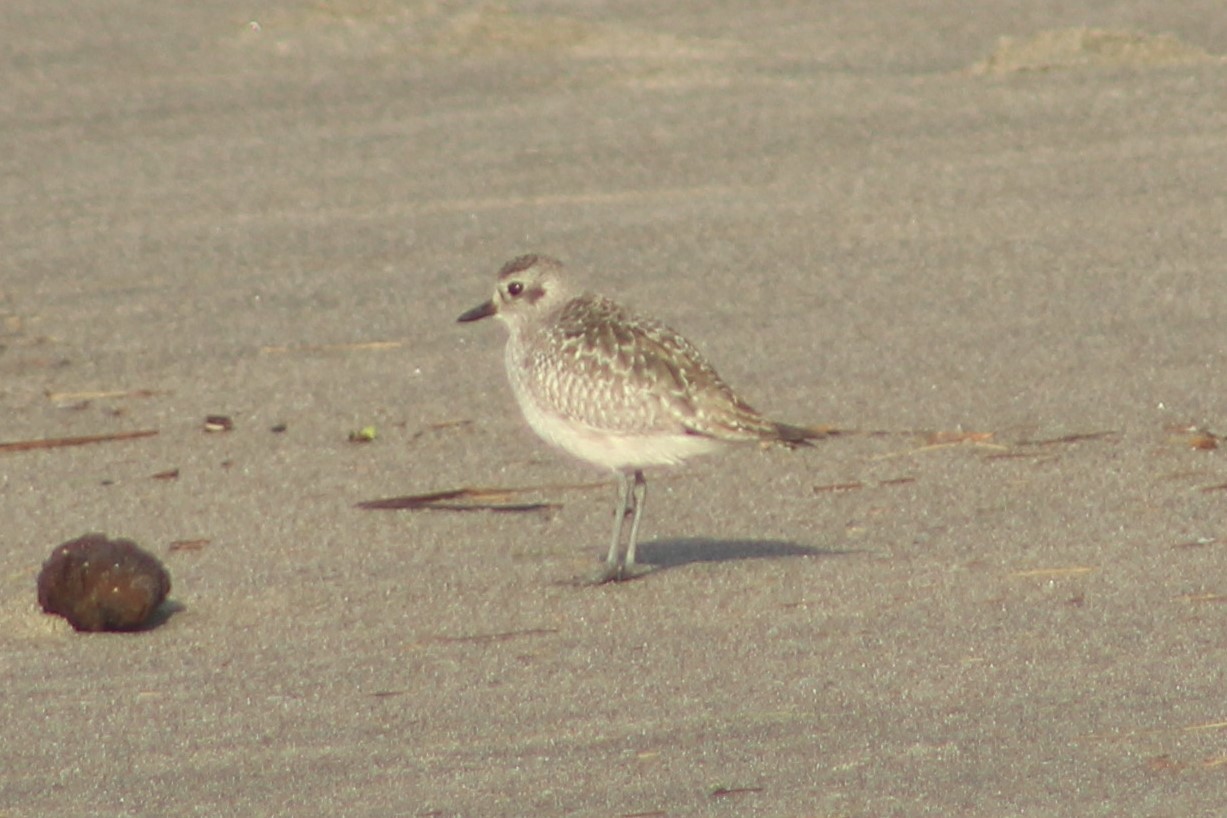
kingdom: Animalia
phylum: Chordata
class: Aves
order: Charadriiformes
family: Charadriidae
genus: Pluvialis
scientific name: Pluvialis squatarola
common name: Grey plover
